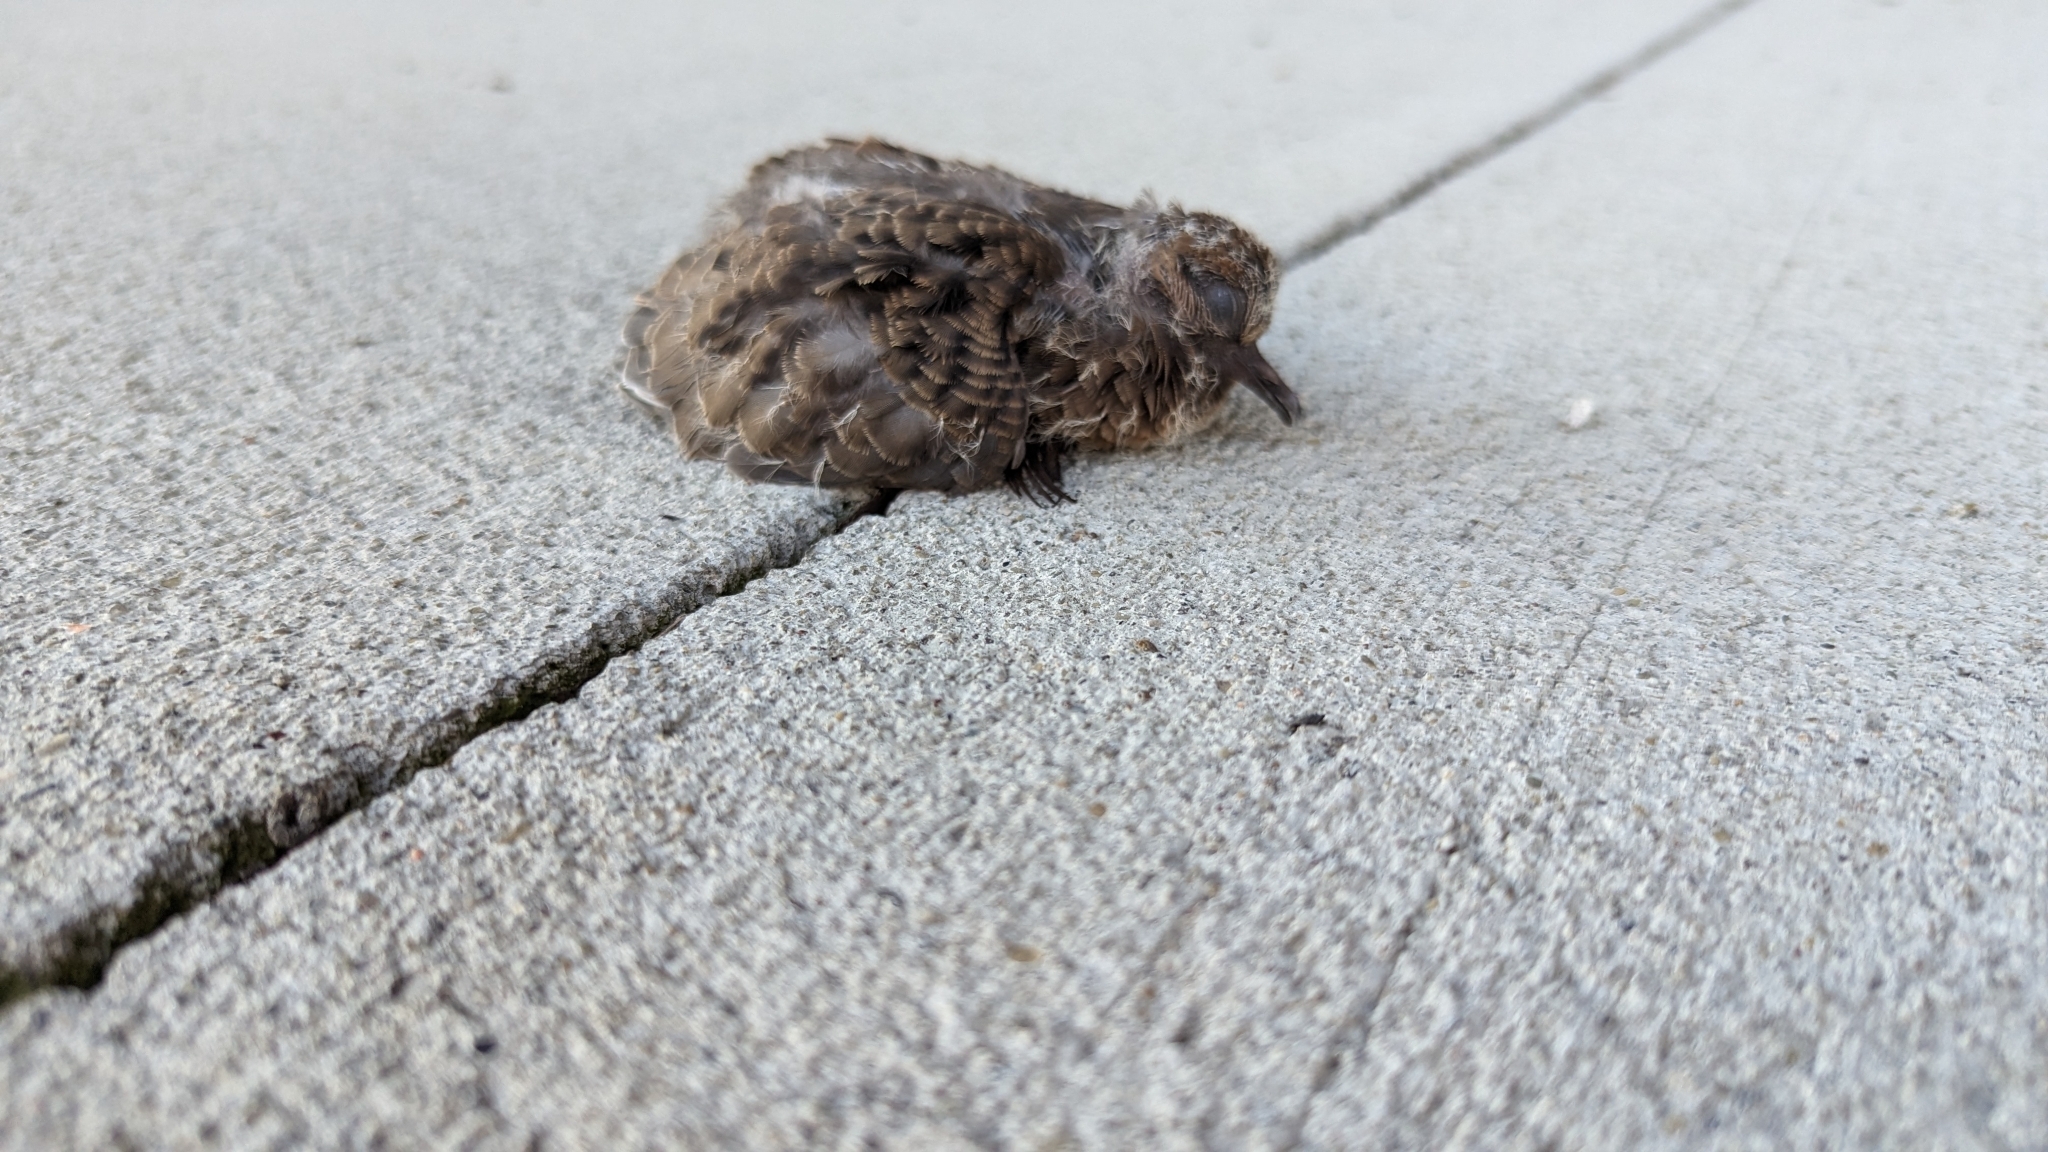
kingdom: Animalia
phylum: Chordata
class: Aves
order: Columbiformes
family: Columbidae
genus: Zenaida
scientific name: Zenaida macroura
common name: Mourning dove
